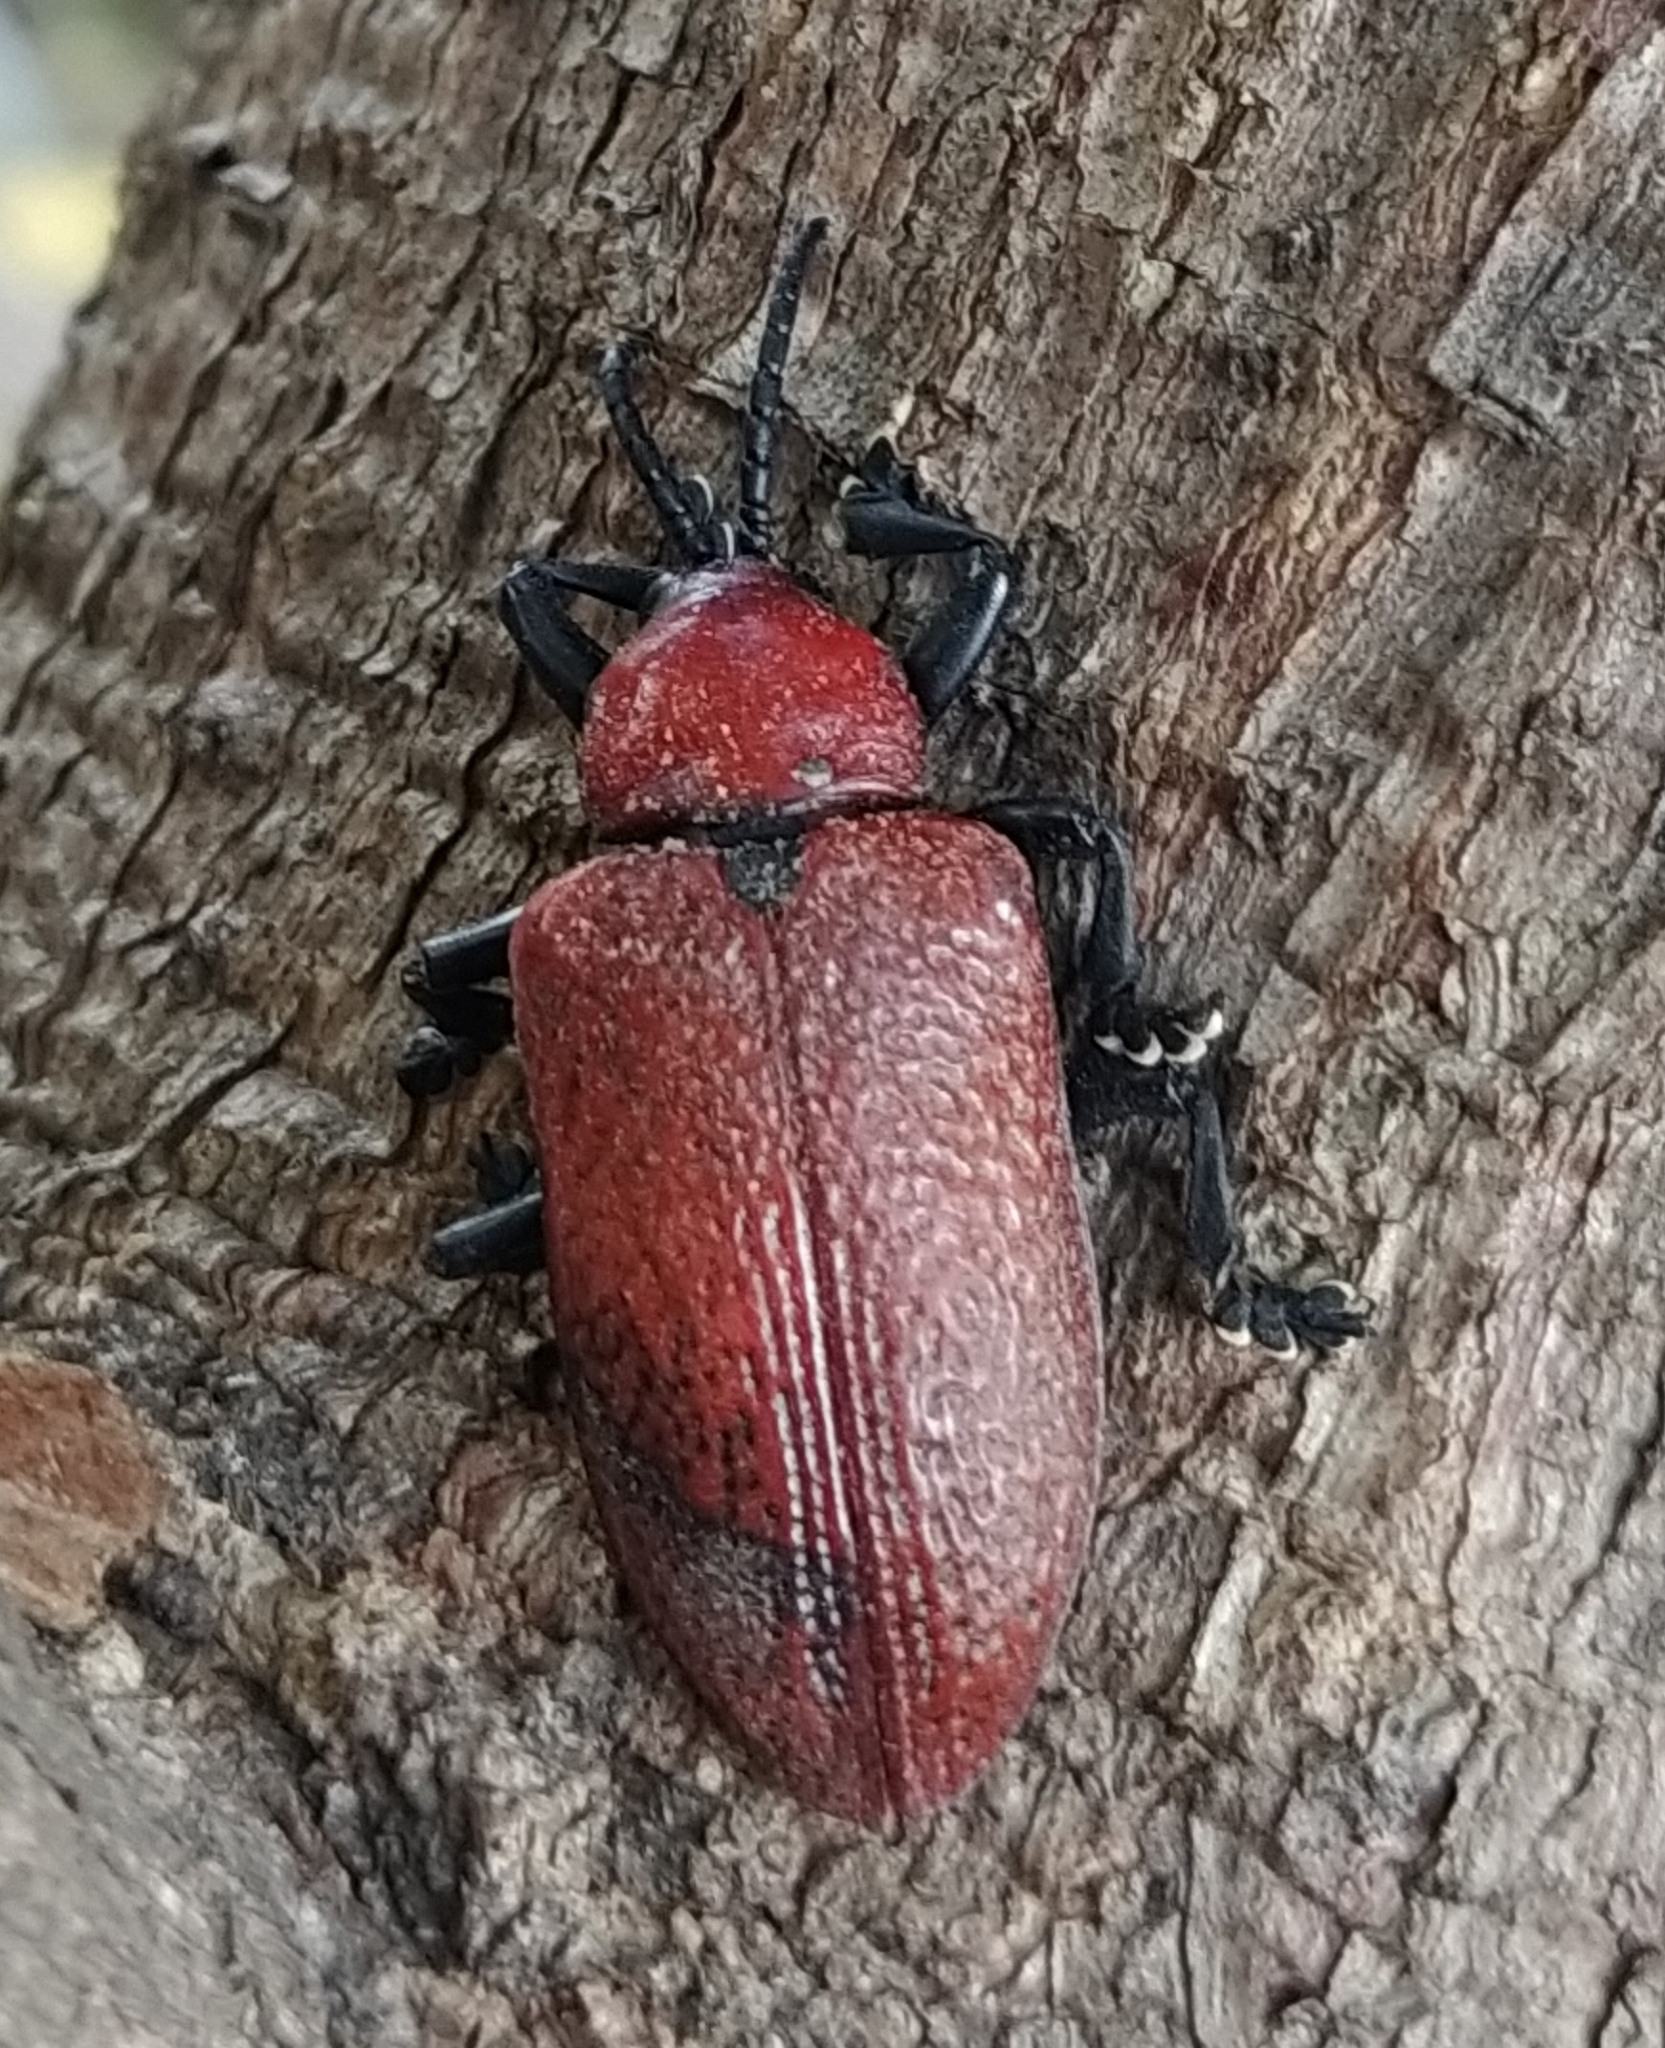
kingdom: Animalia
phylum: Arthropoda
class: Insecta
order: Coleoptera
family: Chrysomelidae
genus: Coraliomela
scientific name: Coraliomela brunnea
